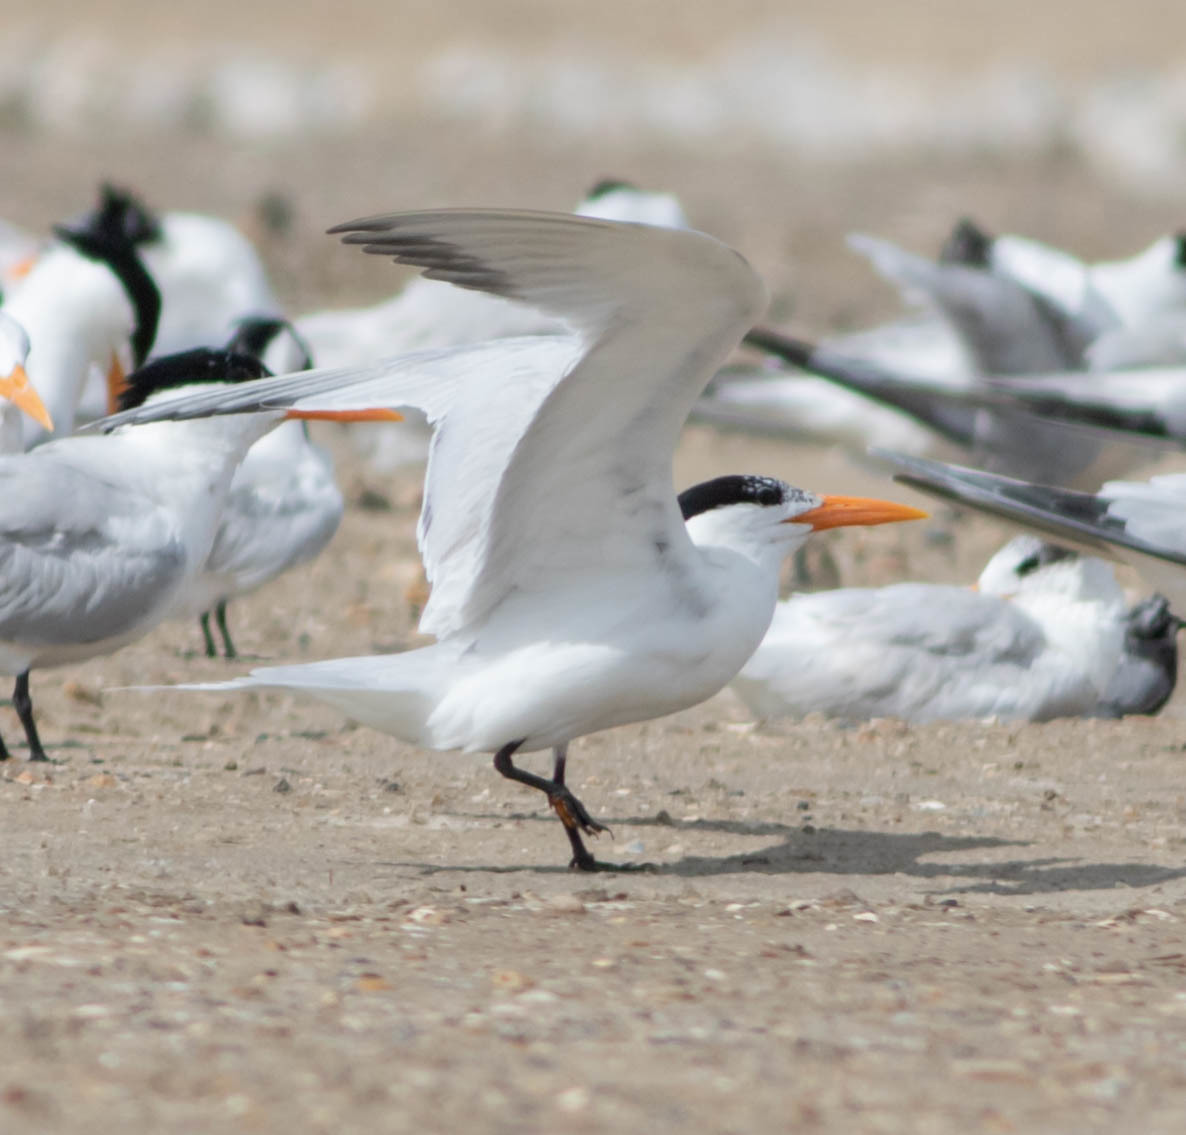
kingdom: Animalia
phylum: Chordata
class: Aves
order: Charadriiformes
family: Laridae
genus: Thalasseus
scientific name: Thalasseus maximus
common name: Royal tern
